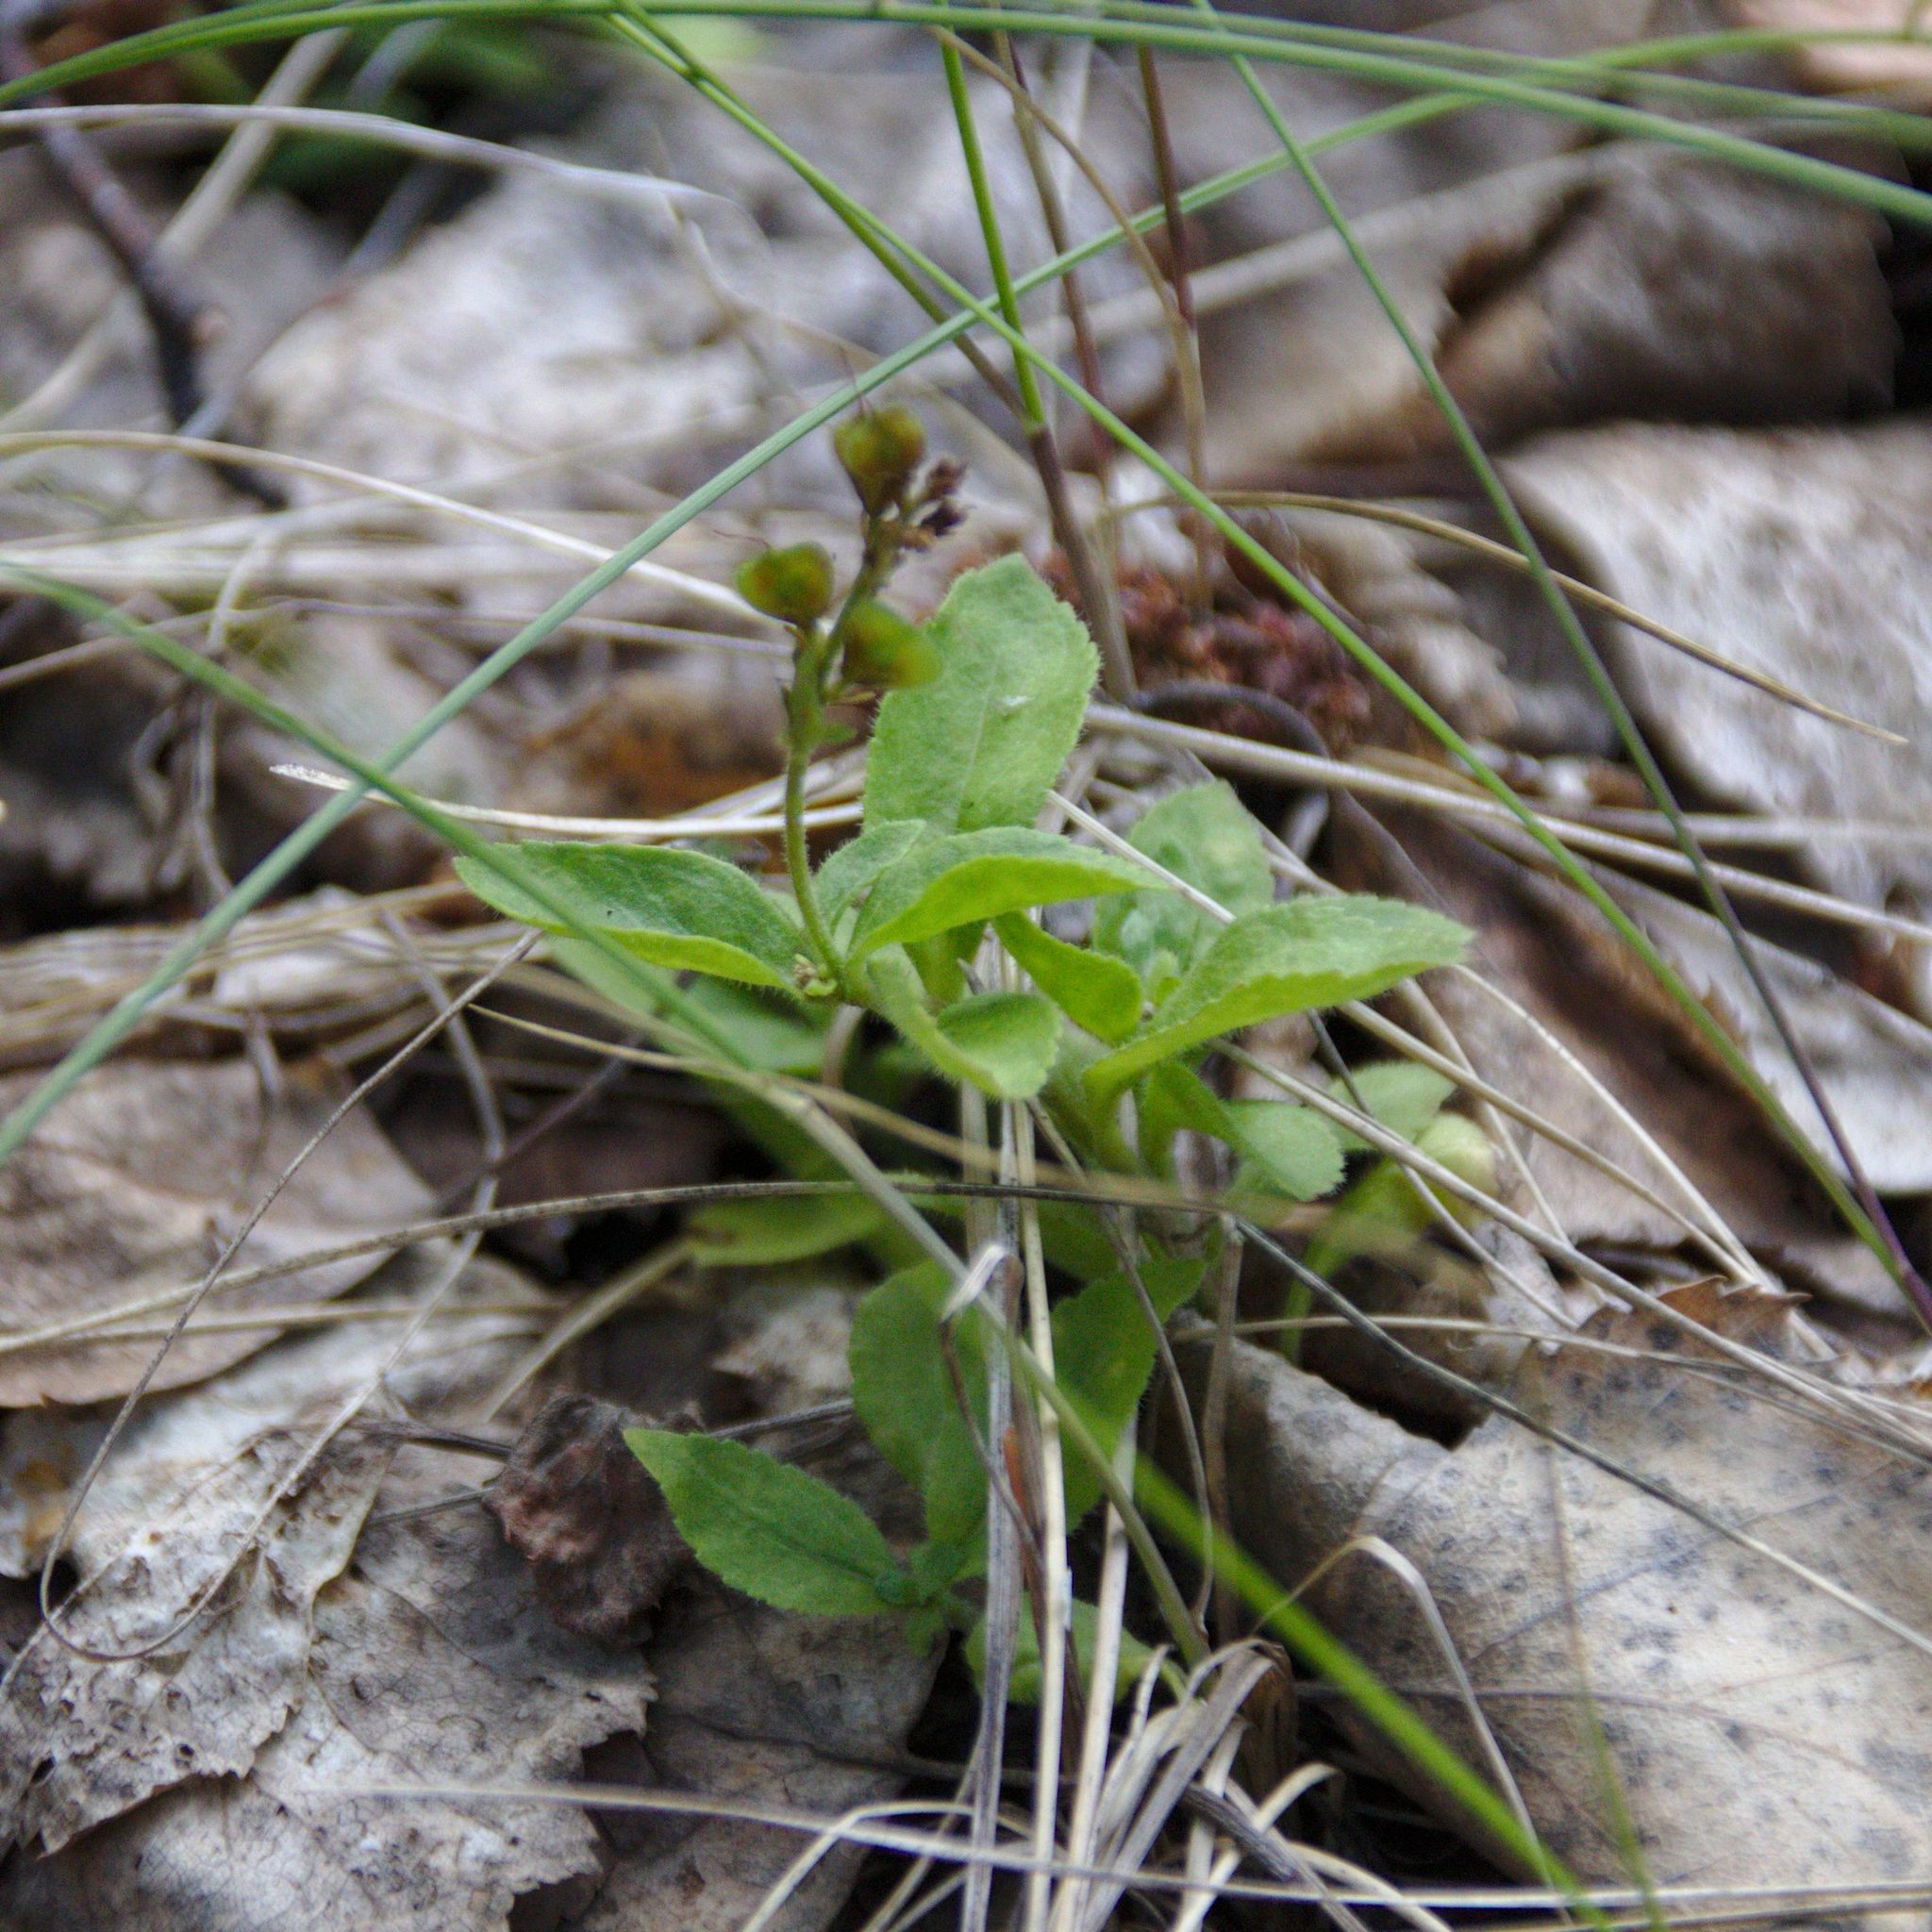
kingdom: Plantae
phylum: Tracheophyta
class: Magnoliopsida
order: Lamiales
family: Plantaginaceae
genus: Veronica
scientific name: Veronica officinalis
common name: Common speedwell
